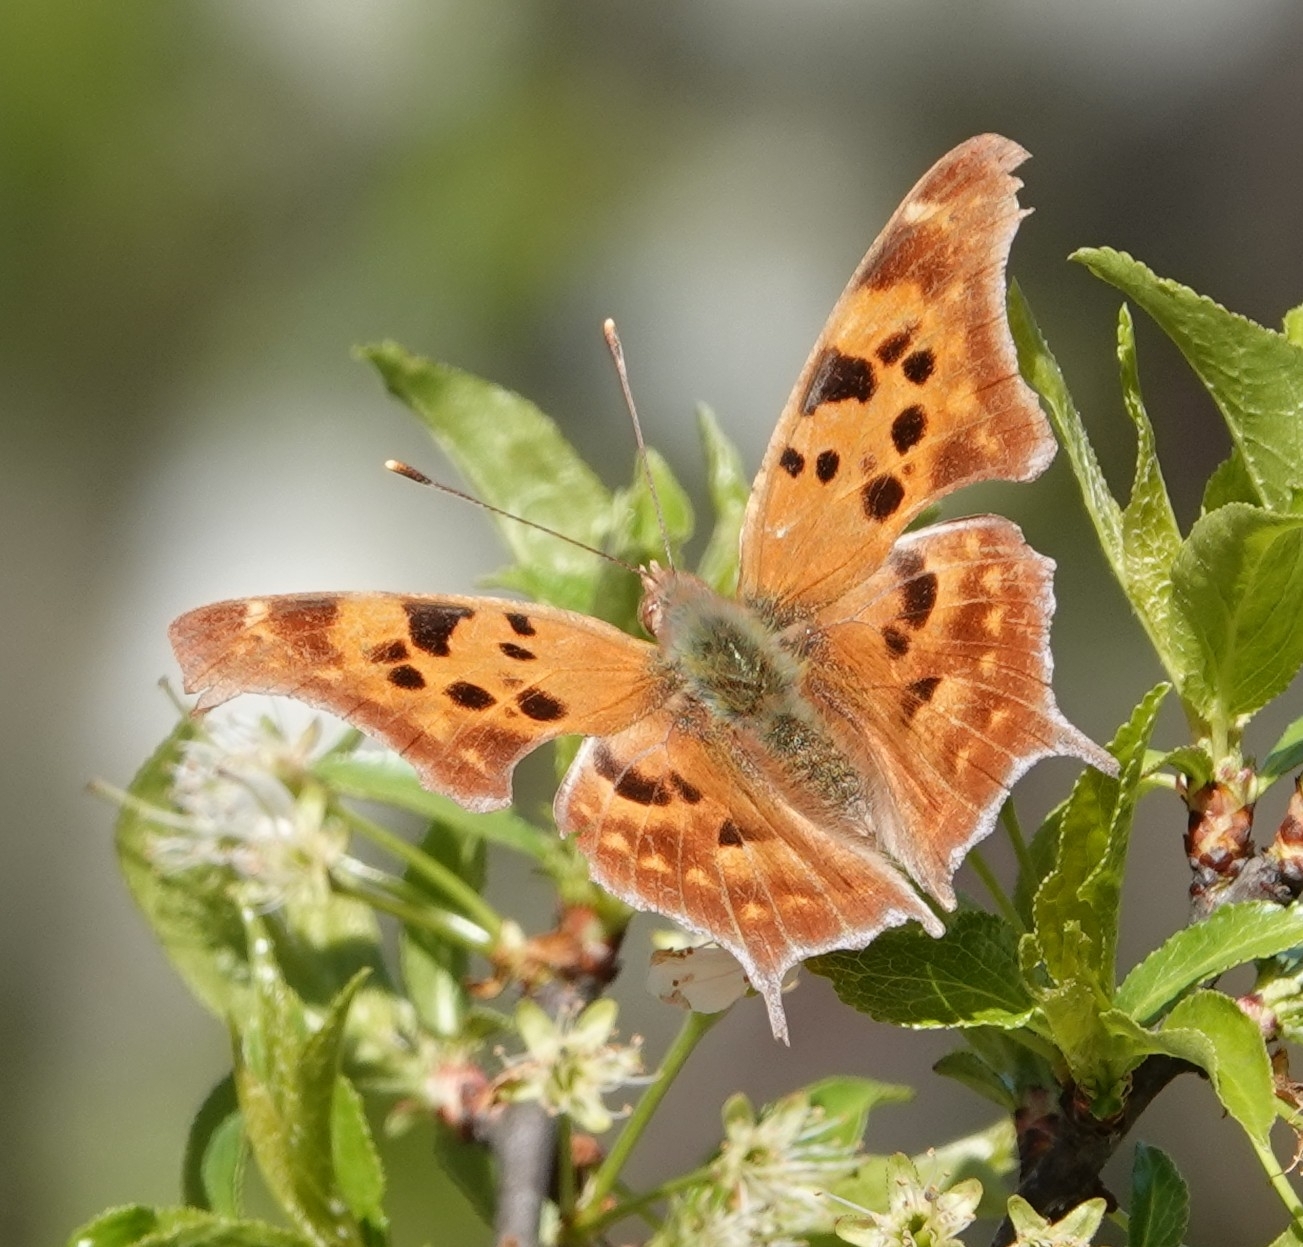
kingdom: Animalia
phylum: Arthropoda
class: Insecta
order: Lepidoptera
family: Nymphalidae
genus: Polygonia
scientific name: Polygonia interrogationis
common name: Question mark
